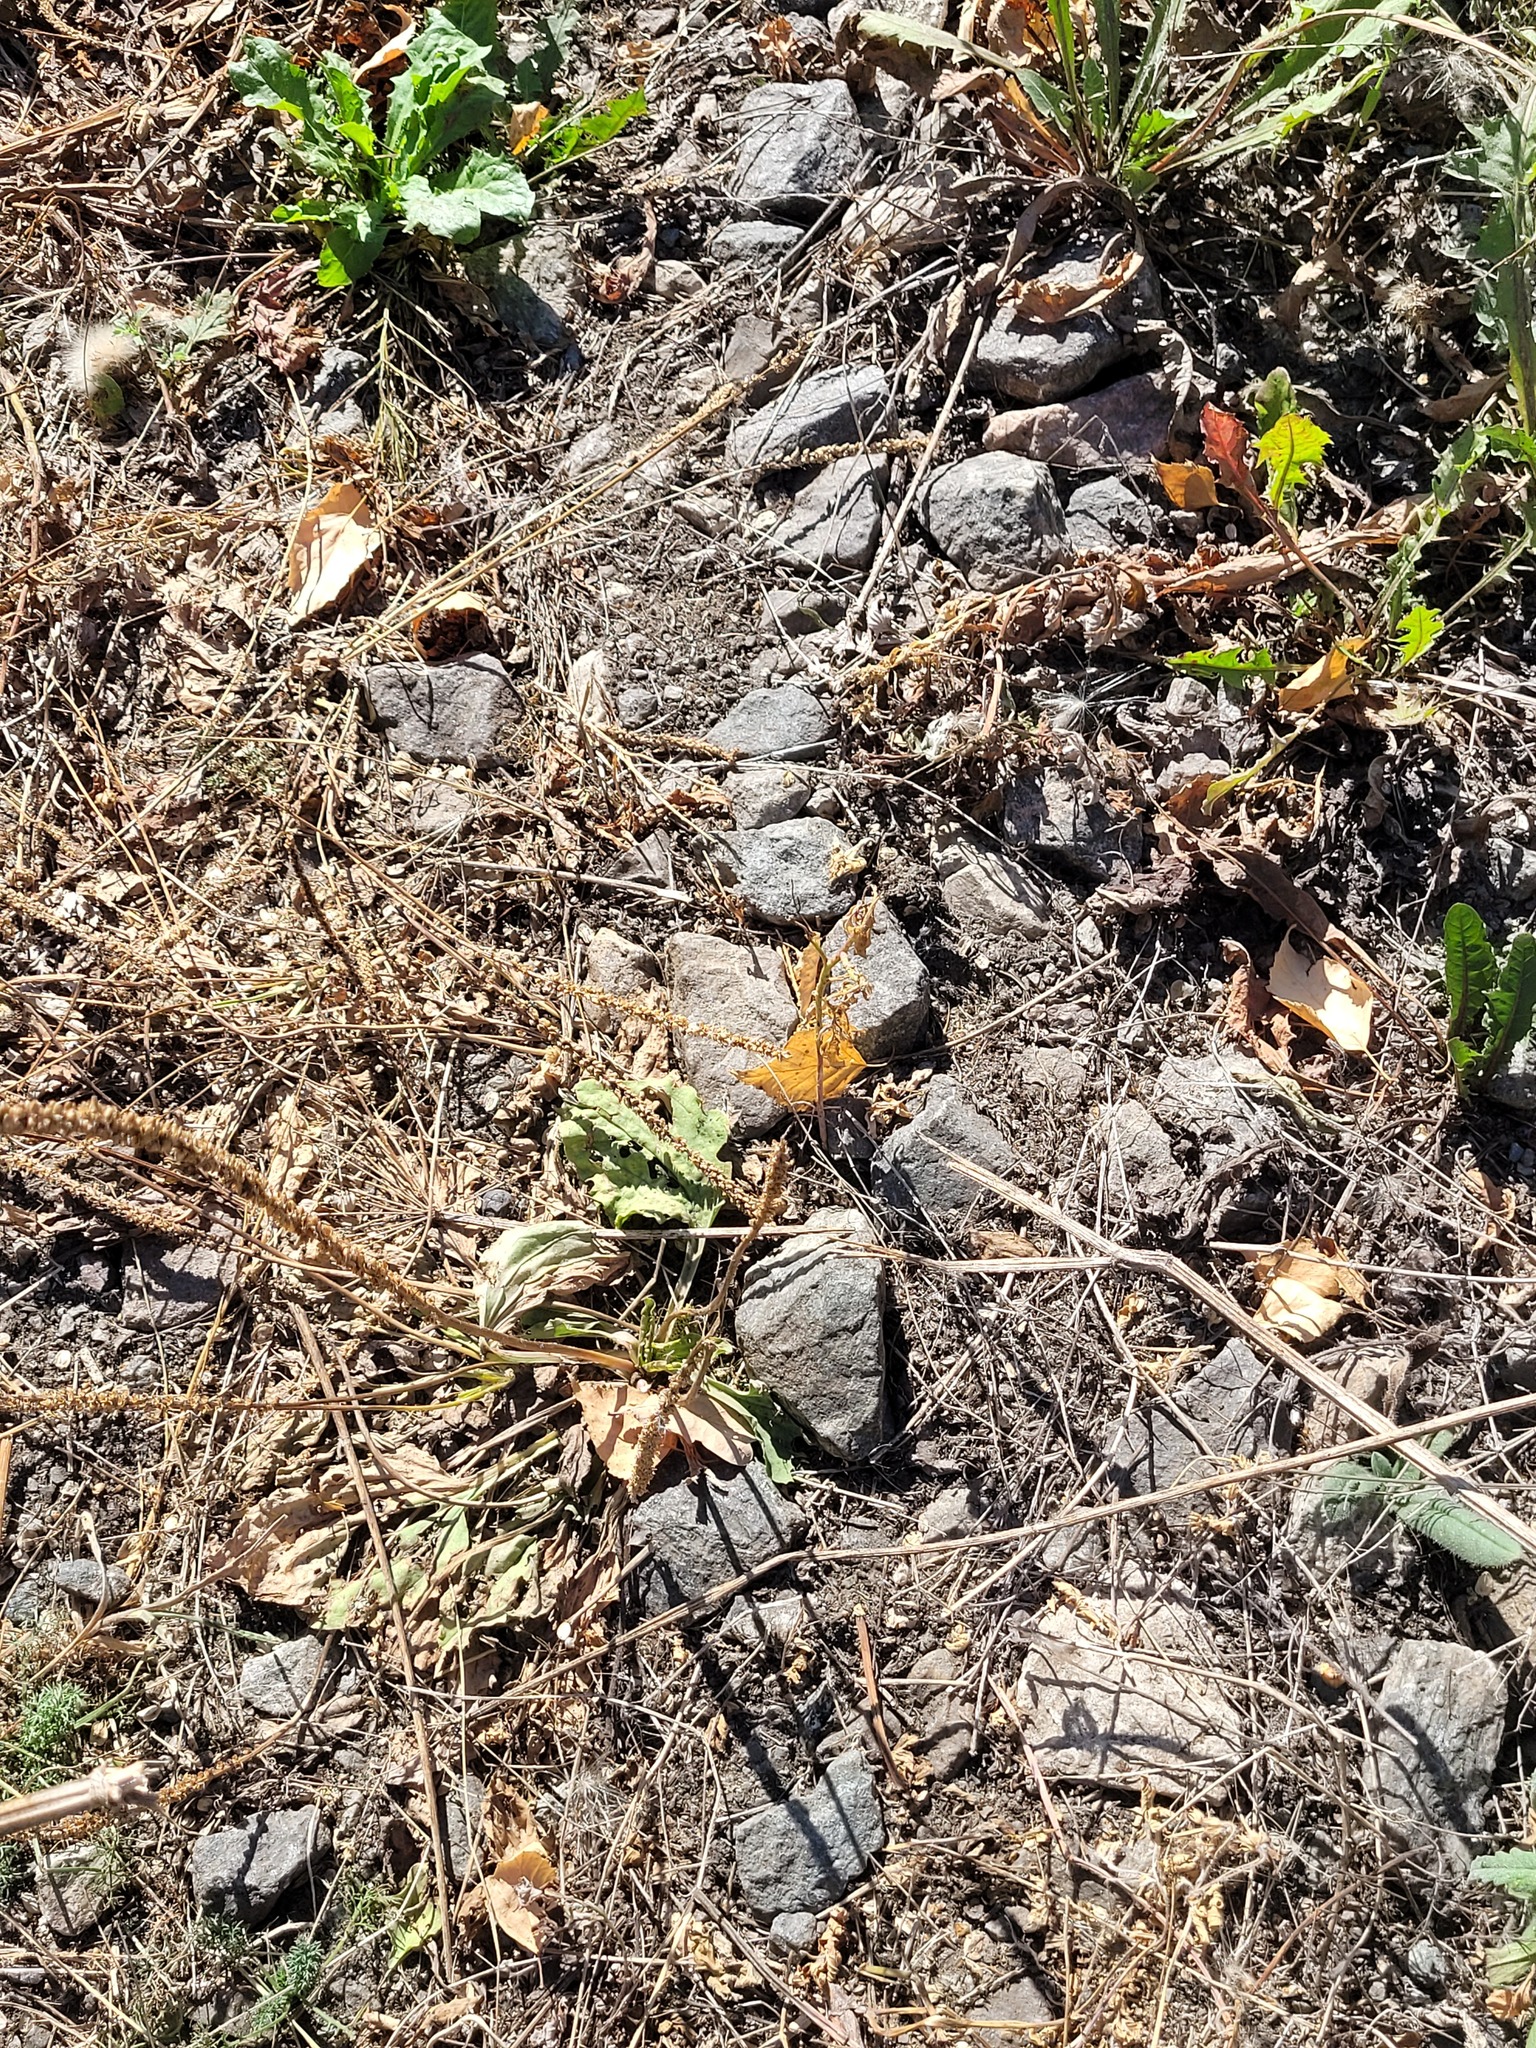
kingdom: Plantae
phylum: Tracheophyta
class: Magnoliopsida
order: Lamiales
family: Plantaginaceae
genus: Plantago
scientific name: Plantago major
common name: Common plantain
